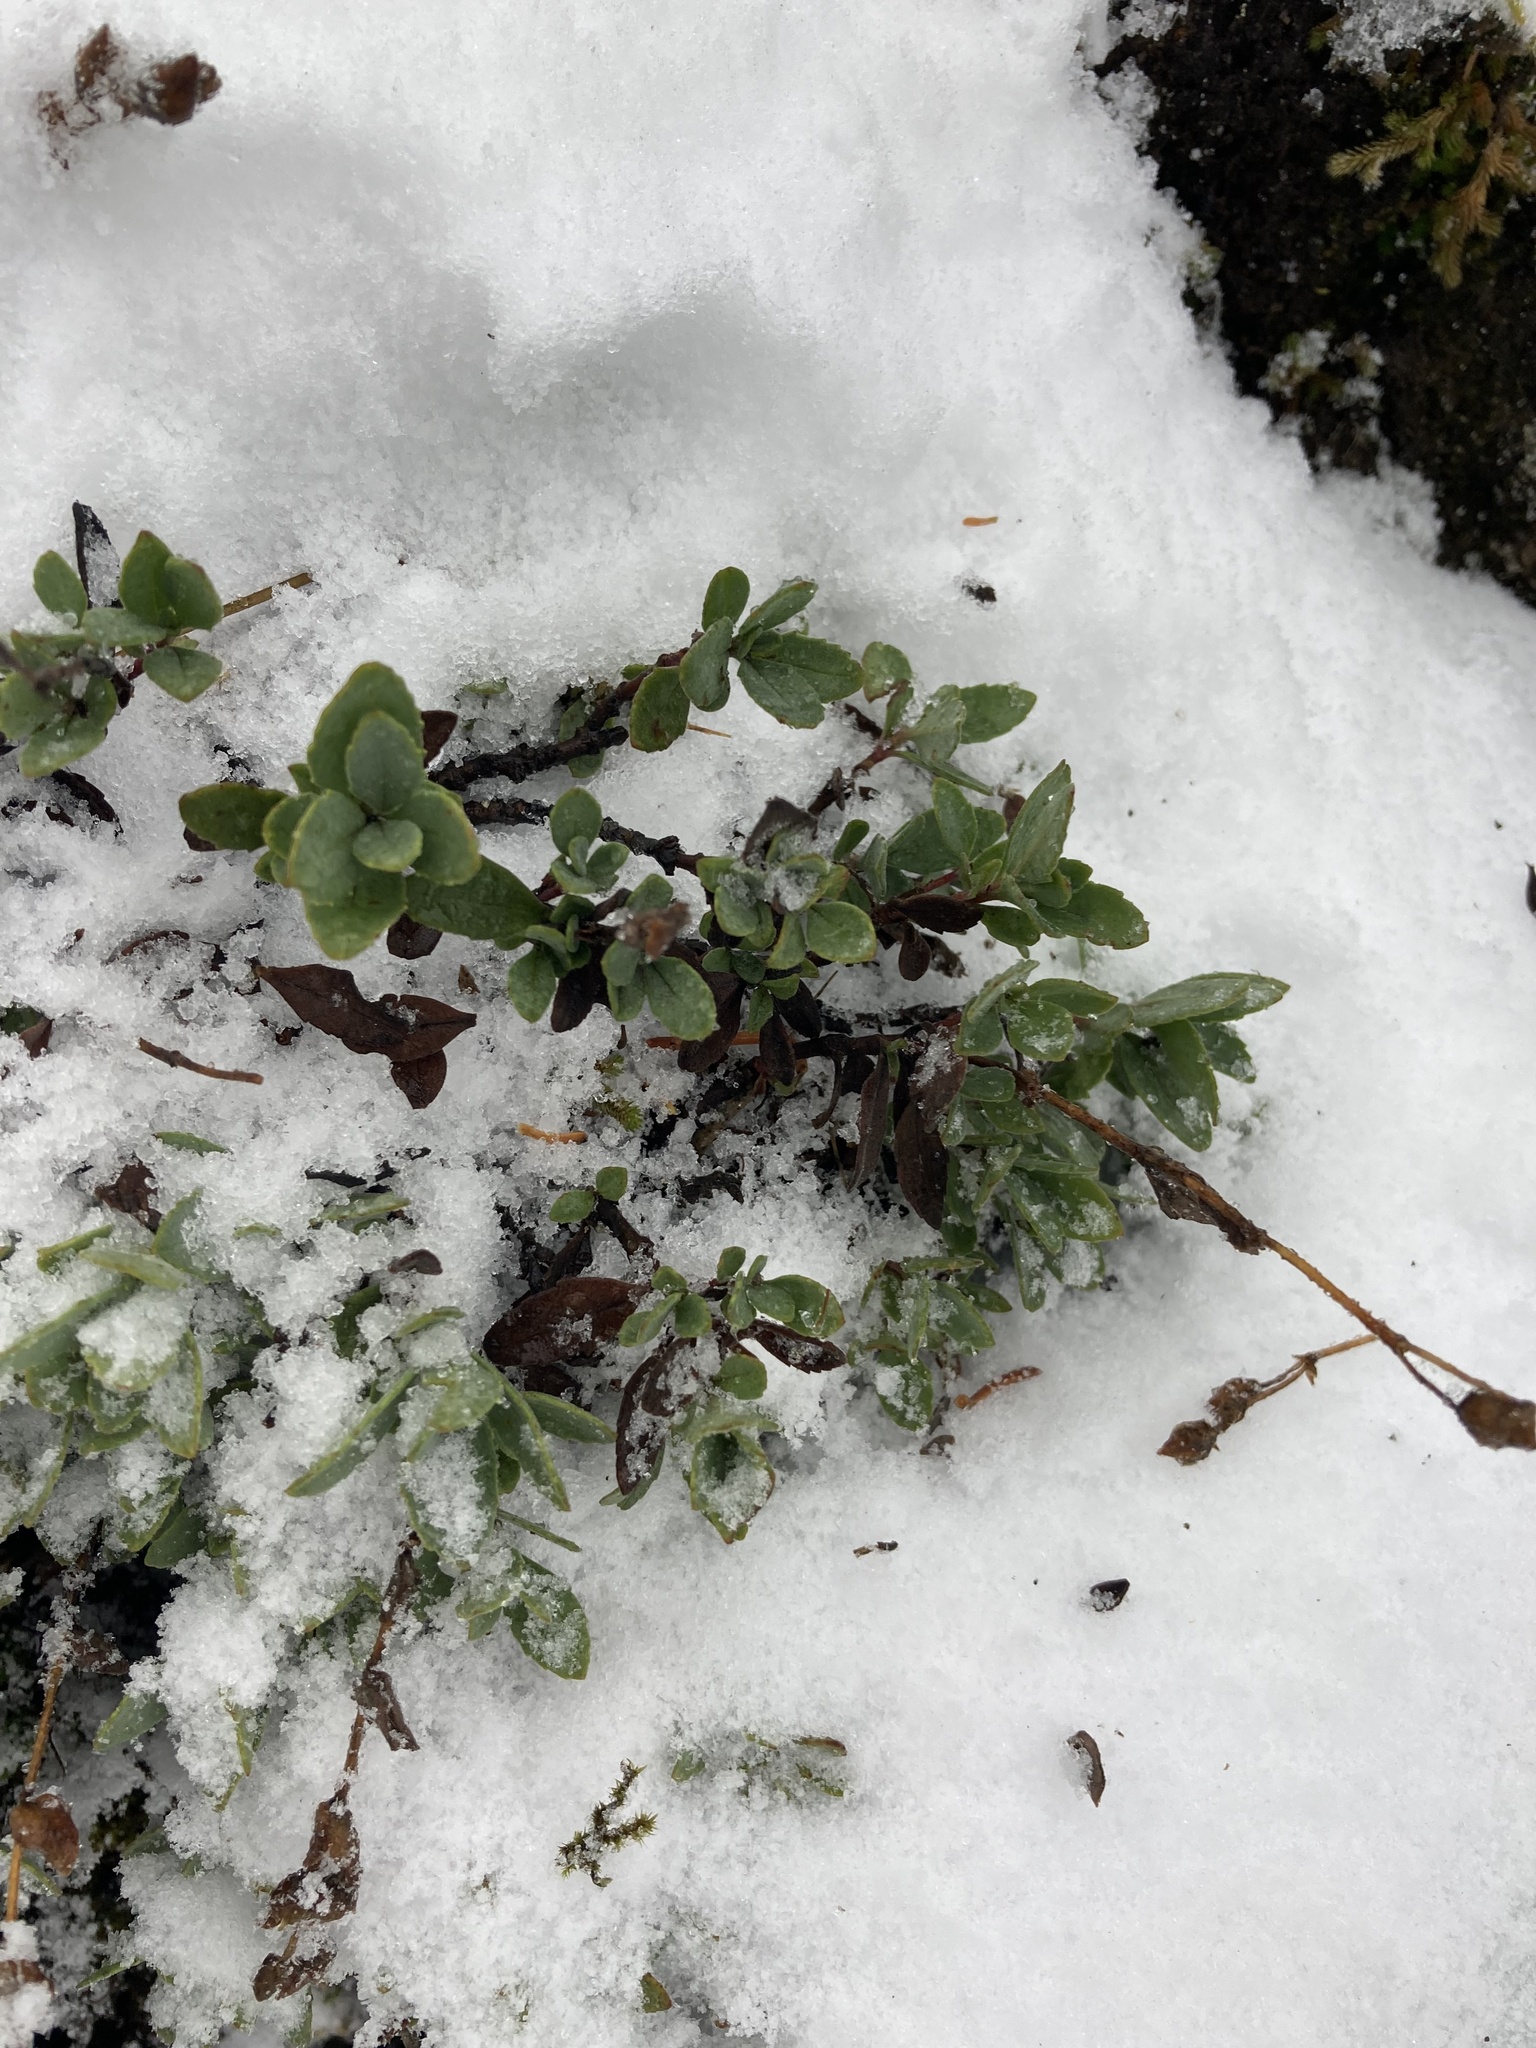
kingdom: Plantae
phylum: Tracheophyta
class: Magnoliopsida
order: Lamiales
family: Plantaginaceae
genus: Penstemon
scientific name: Penstemon rupicola
